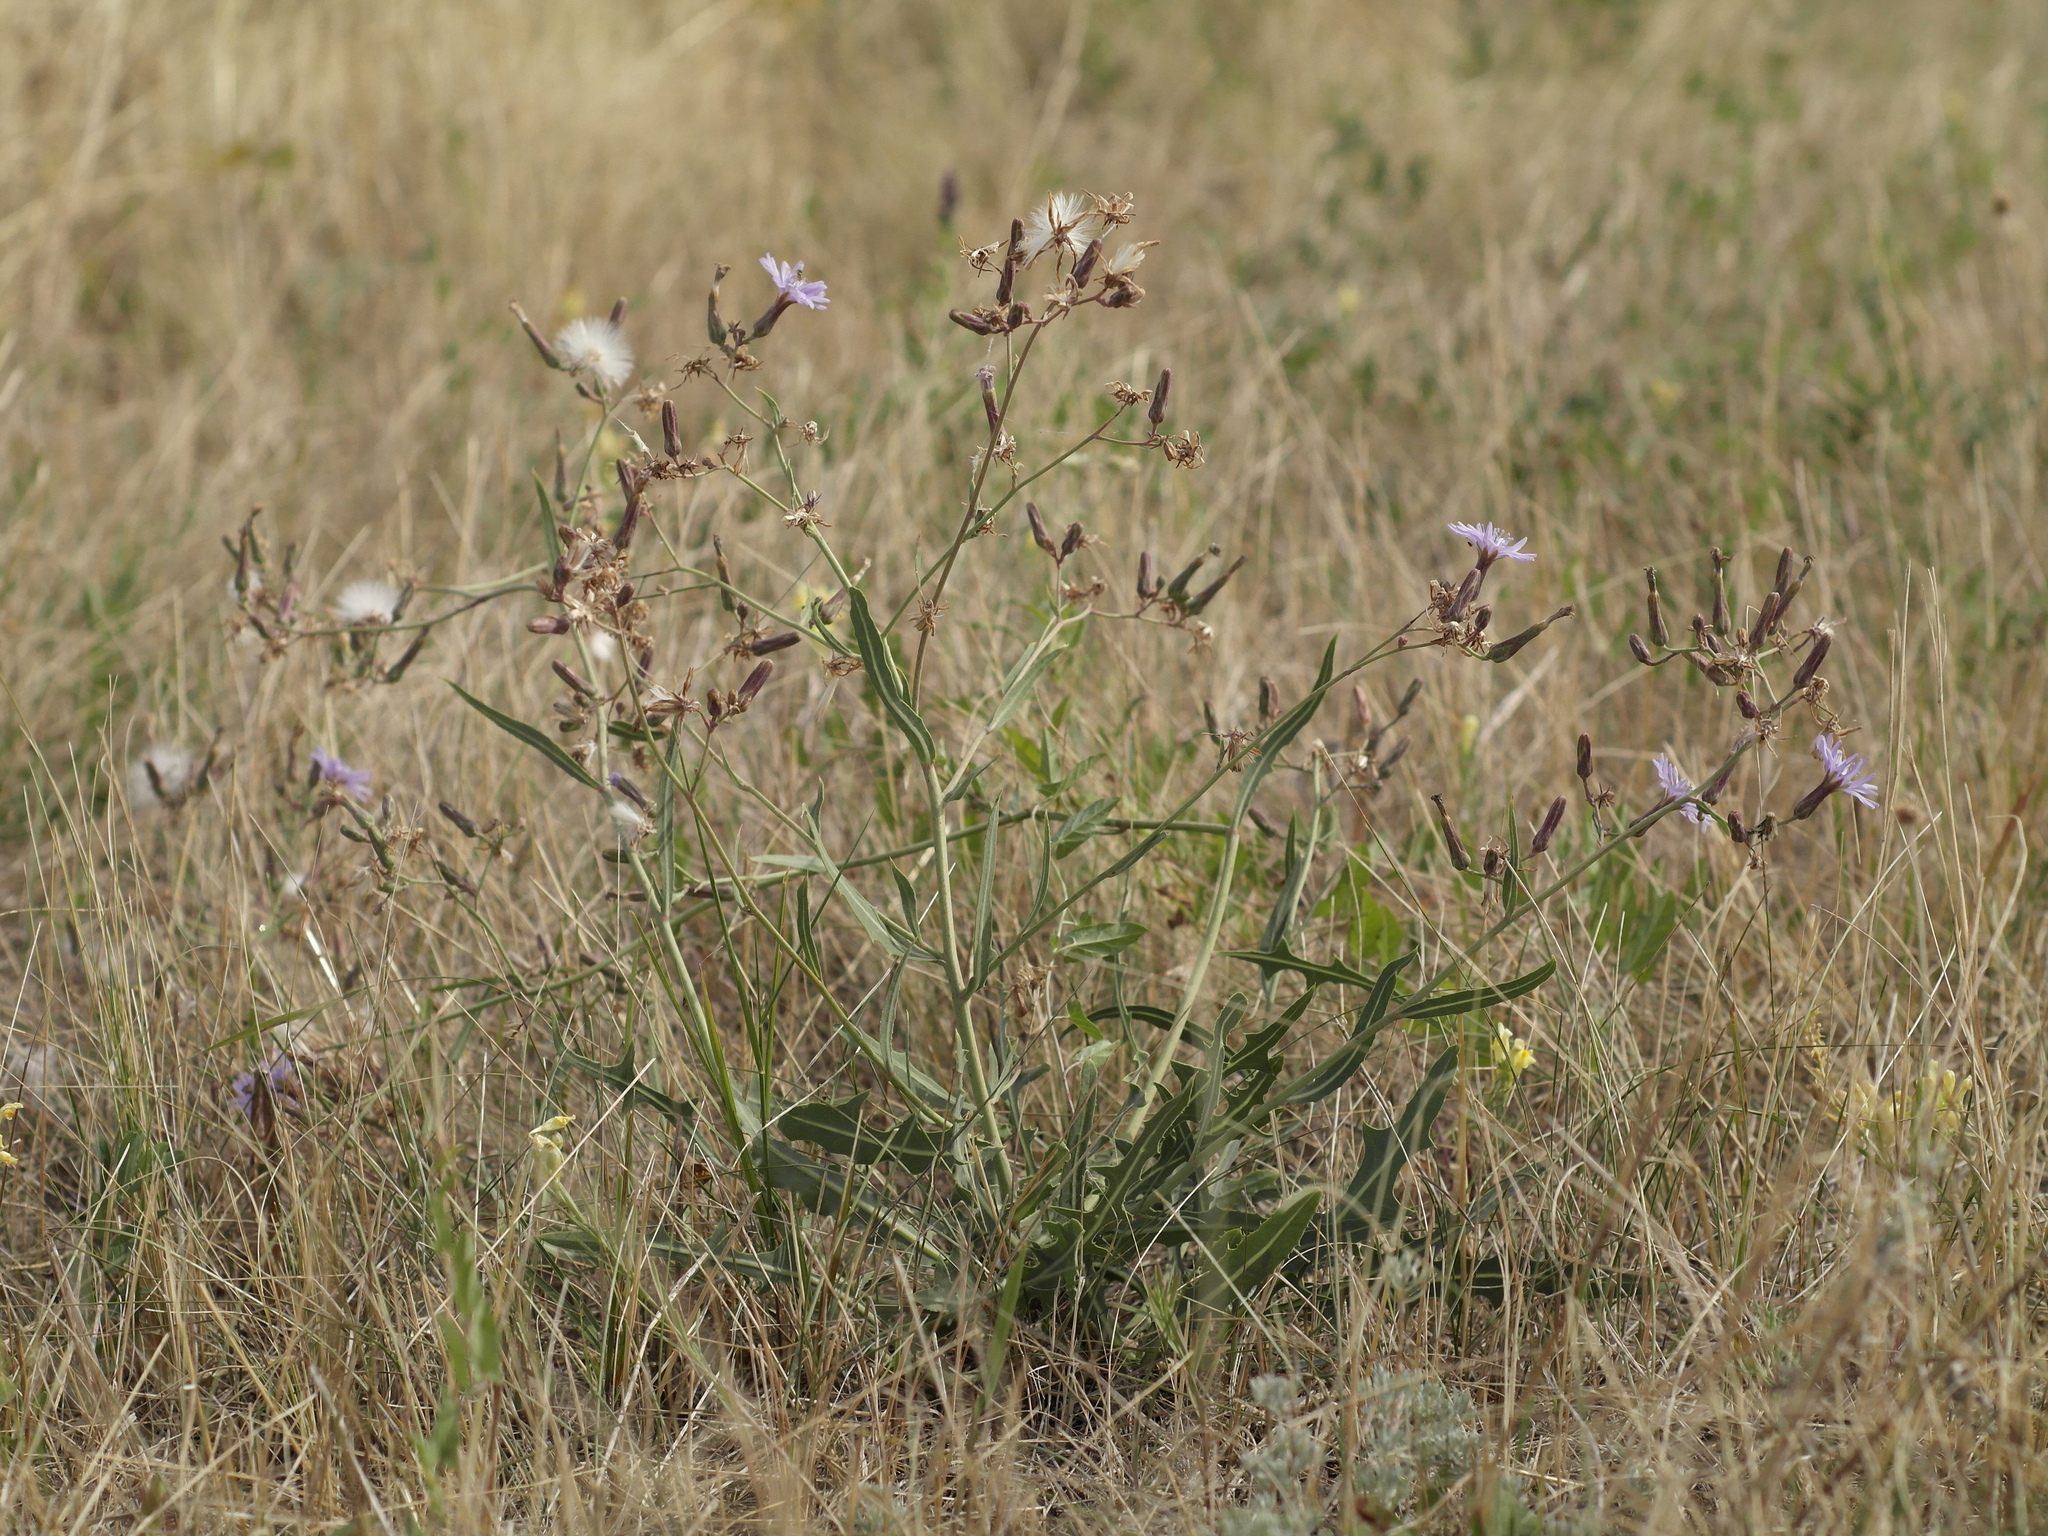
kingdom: Plantae
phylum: Tracheophyta
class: Magnoliopsida
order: Asterales
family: Asteraceae
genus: Lactuca
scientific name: Lactuca tatarica
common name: Blue lettuce
